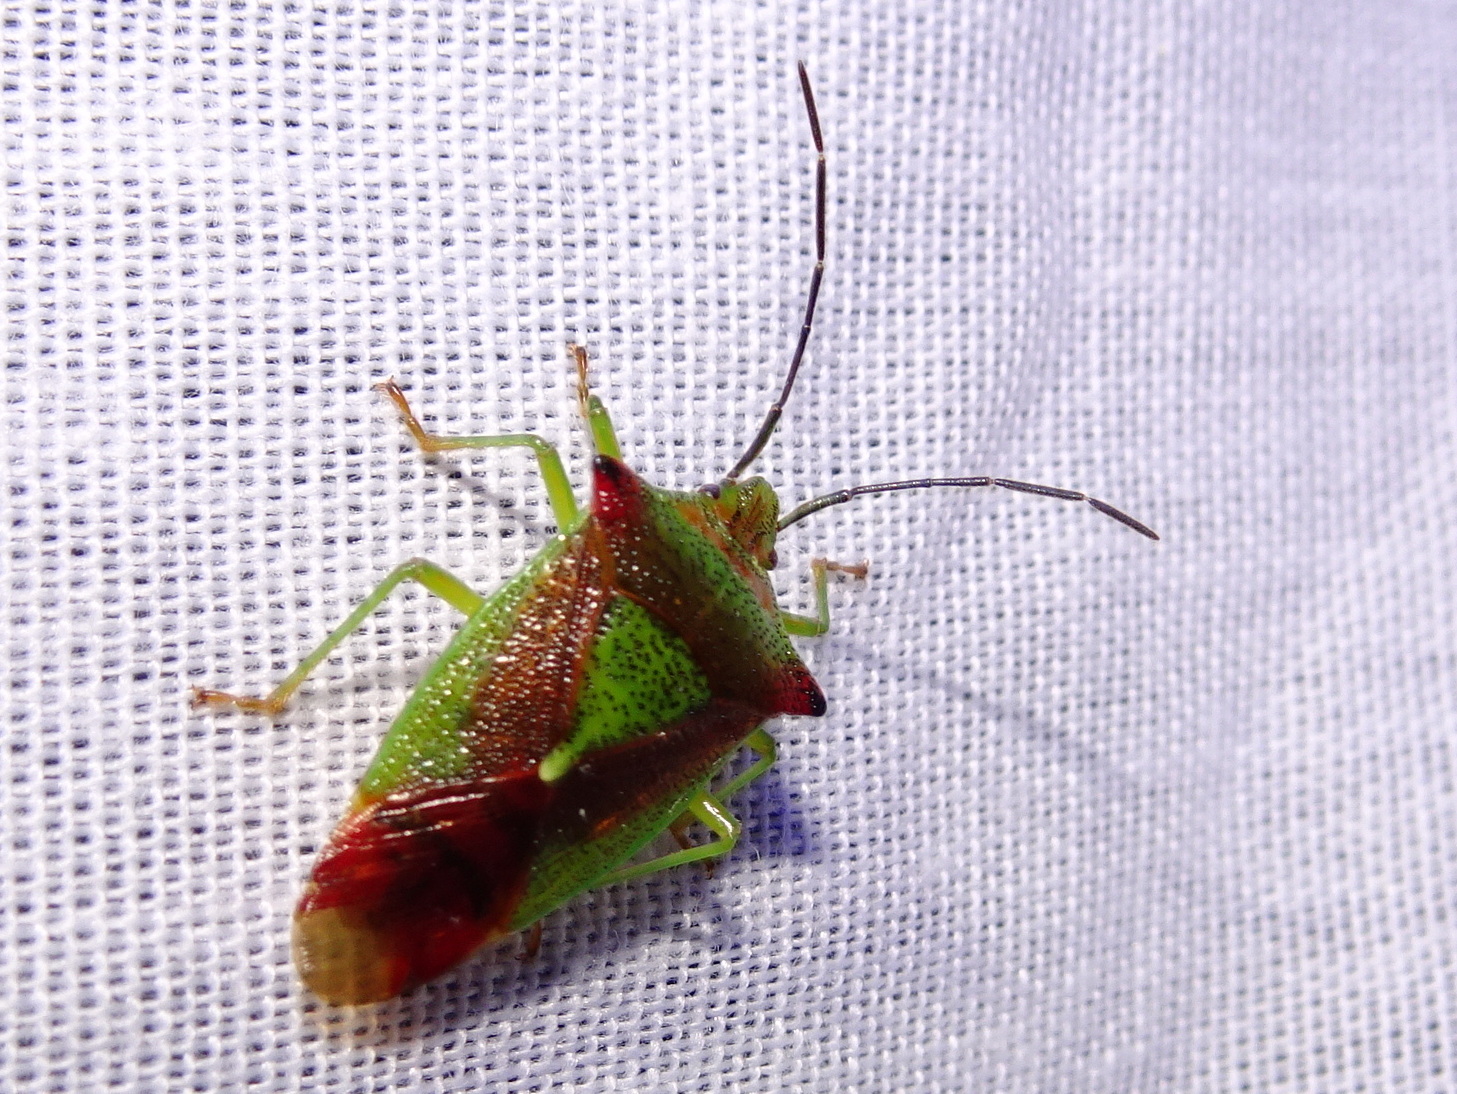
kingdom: Animalia
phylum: Arthropoda
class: Insecta
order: Hemiptera
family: Acanthosomatidae
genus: Acanthosoma
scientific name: Acanthosoma haemorrhoidale
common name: Hawthorn shieldbug
